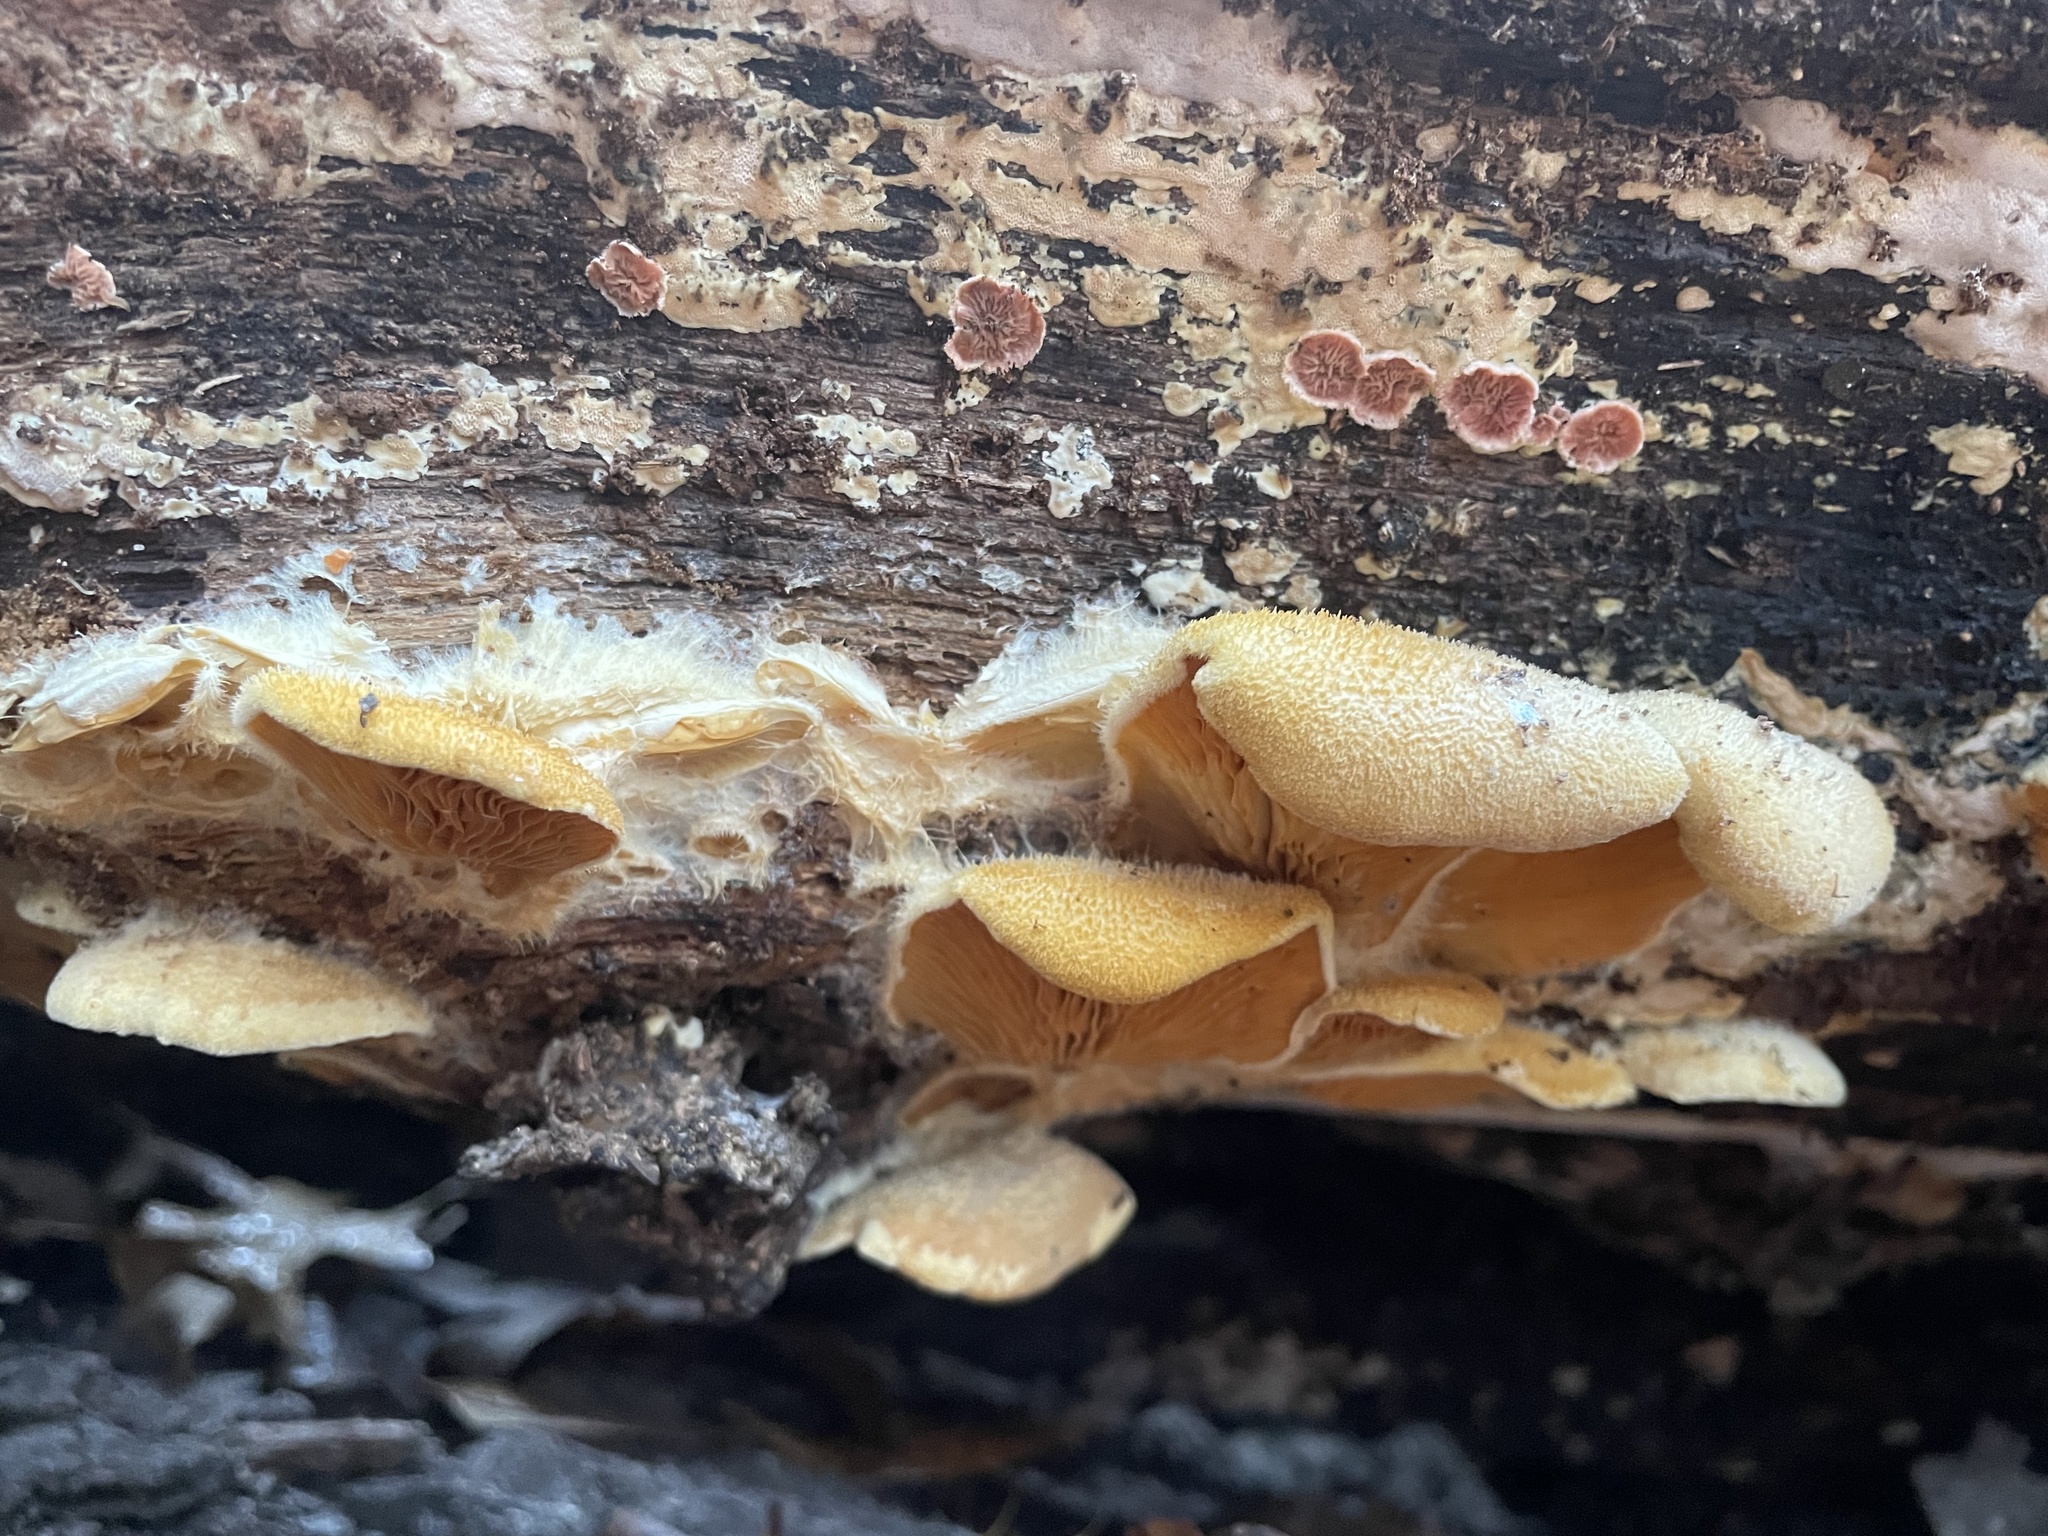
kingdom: Fungi
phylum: Basidiomycota
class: Agaricomycetes
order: Agaricales
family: Phyllotopsidaceae
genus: Phyllotopsis
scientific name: Phyllotopsis nidulans
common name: Orange mock oyster
